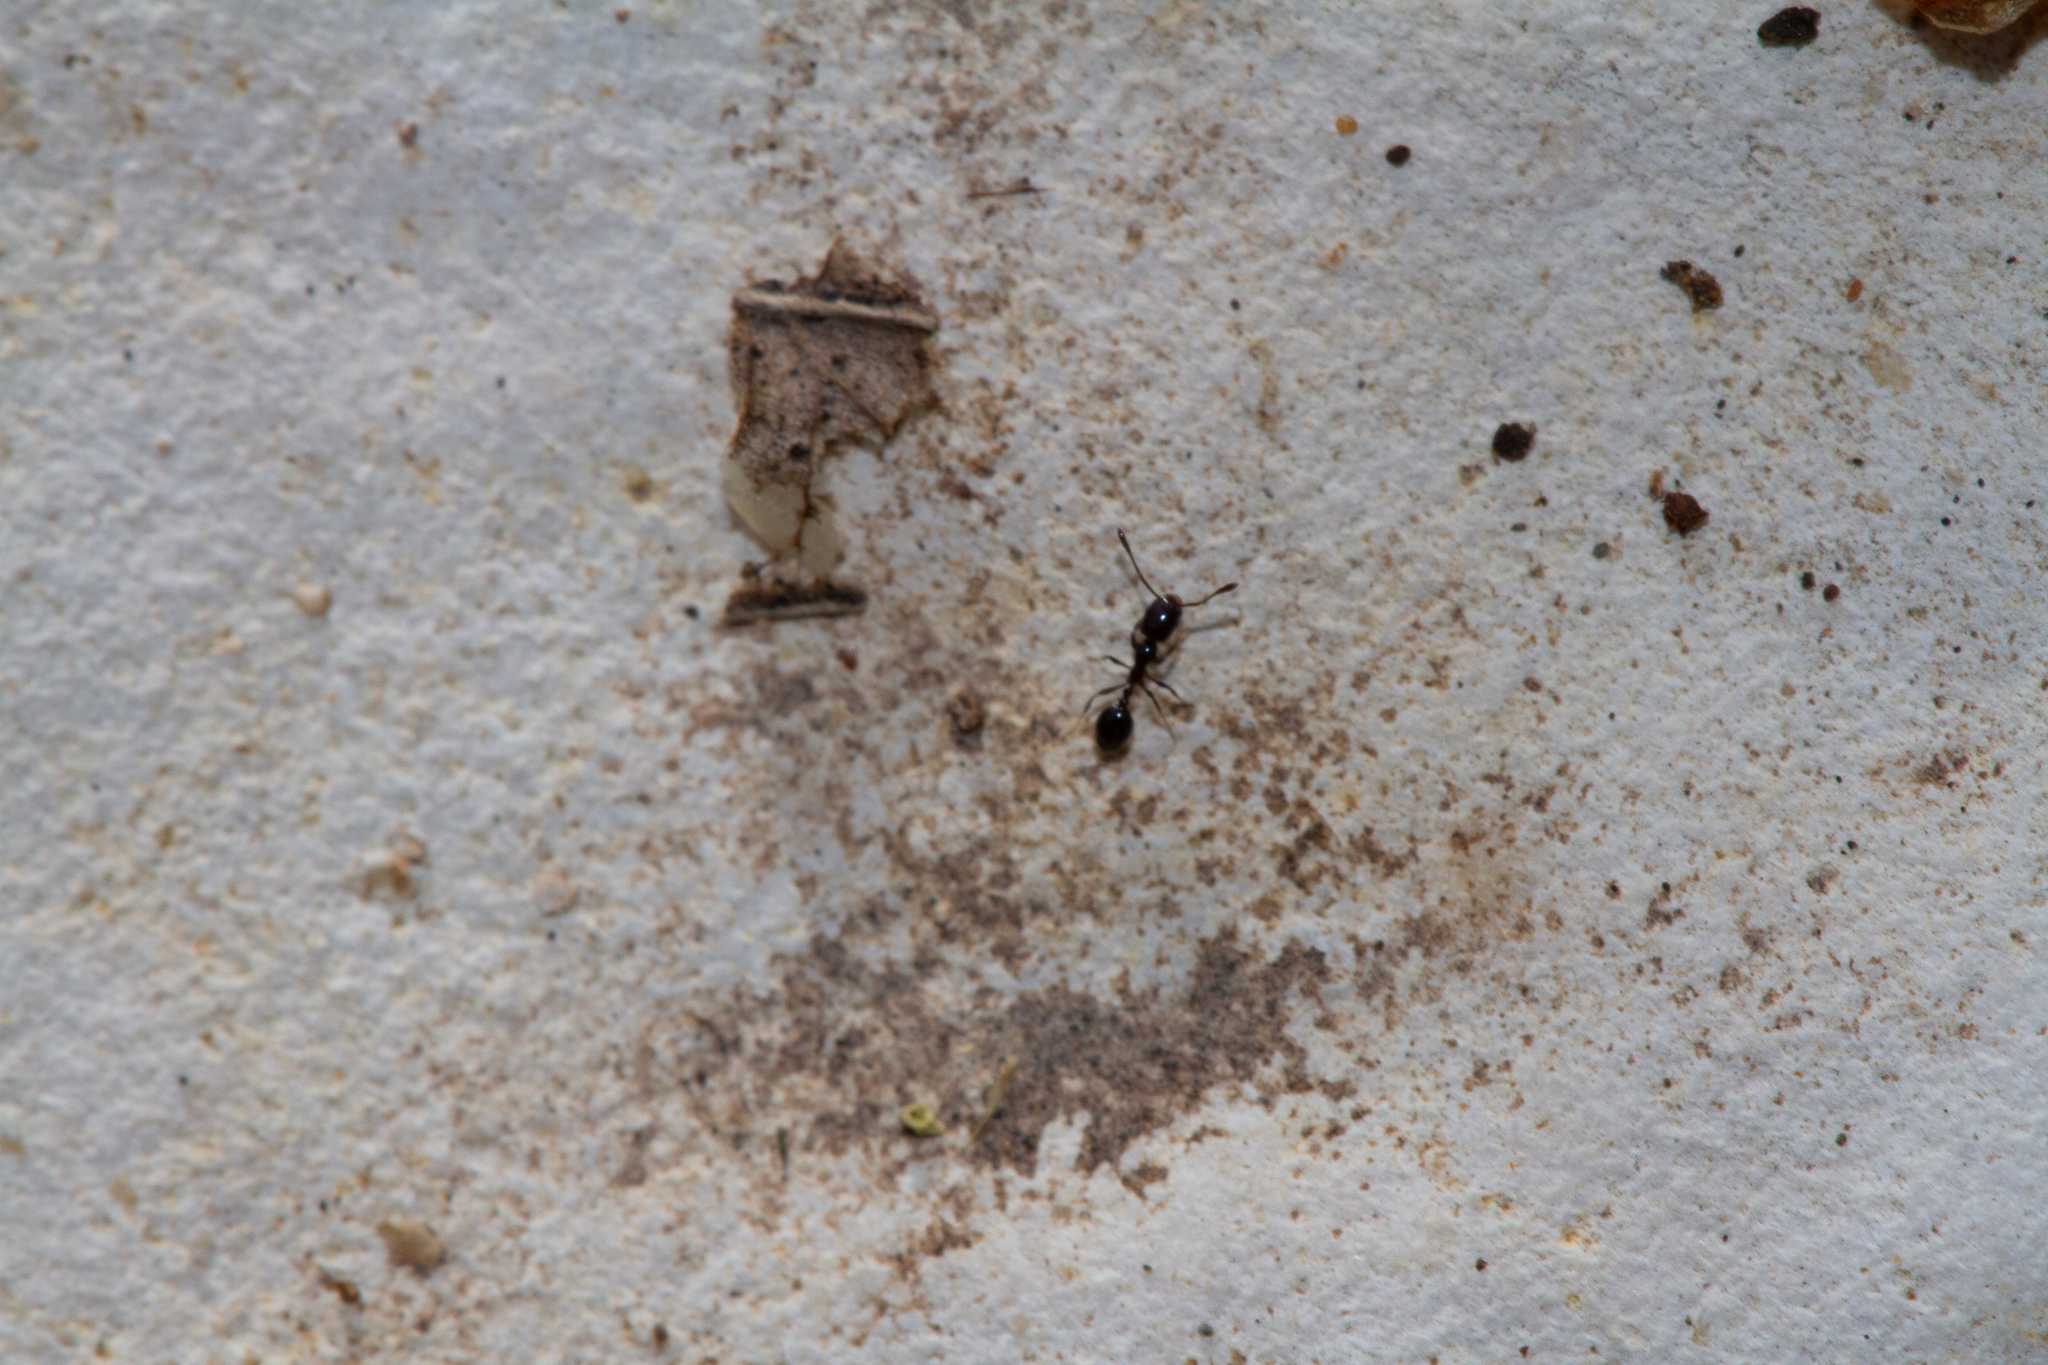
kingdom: Animalia
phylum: Arthropoda
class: Insecta
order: Hymenoptera
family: Formicidae
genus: Monomorium
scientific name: Monomorium minimum
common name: Little black ant
